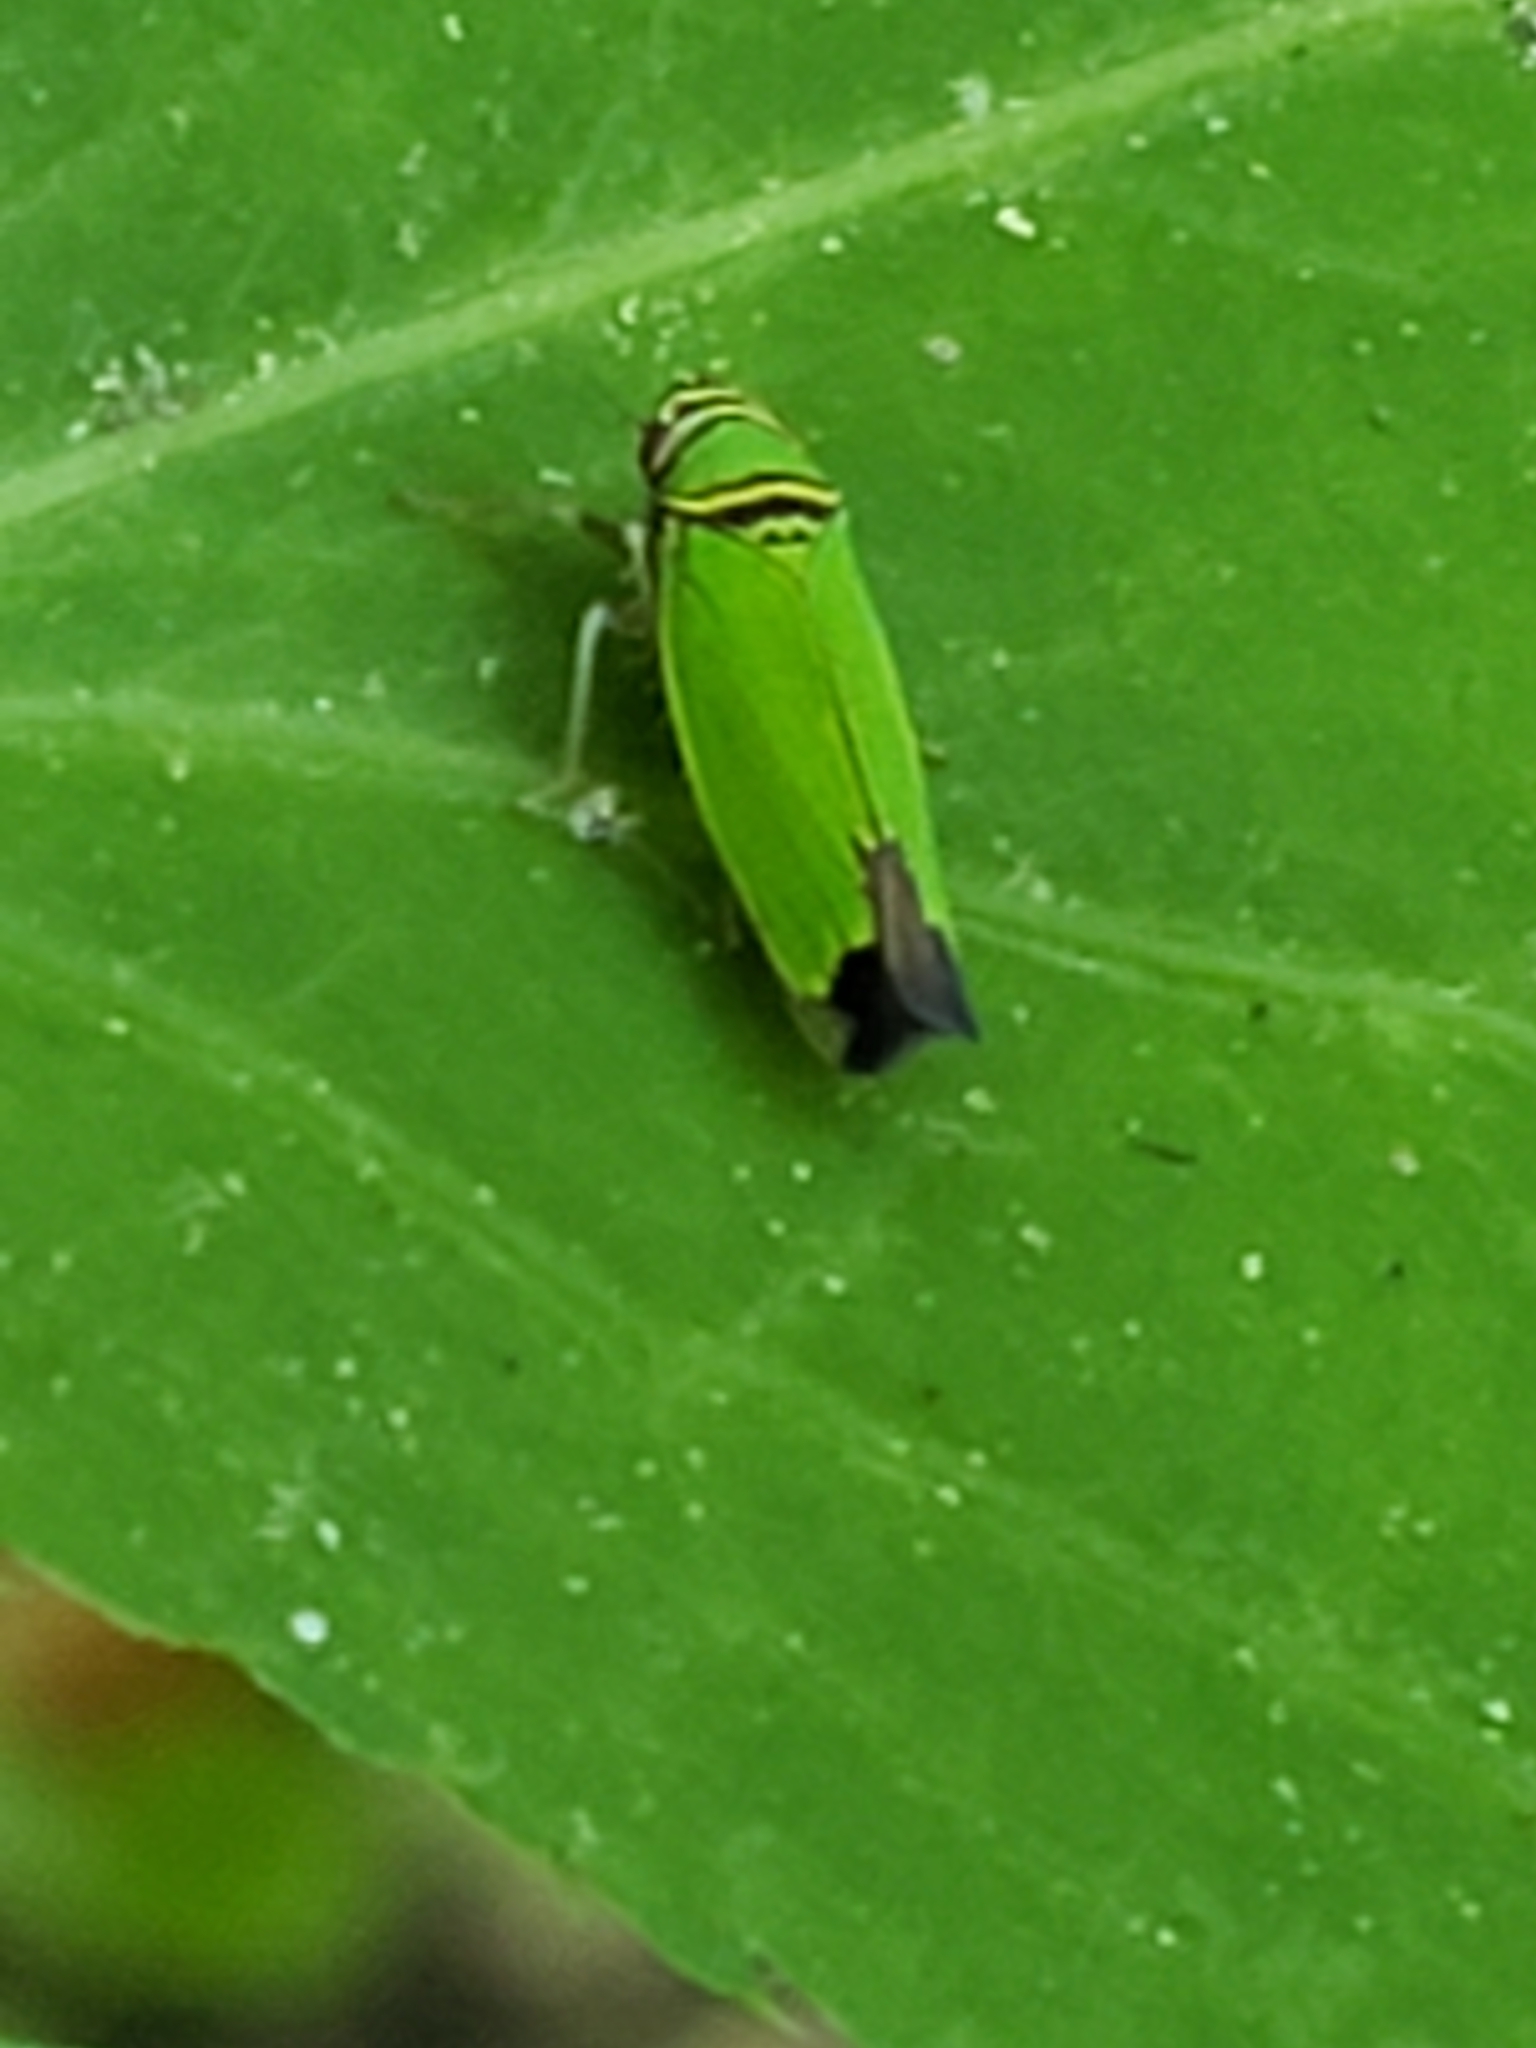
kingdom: Animalia
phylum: Arthropoda
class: Insecta
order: Hemiptera
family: Cicadellidae
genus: Tylozygus
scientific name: Tylozygus geometricus
